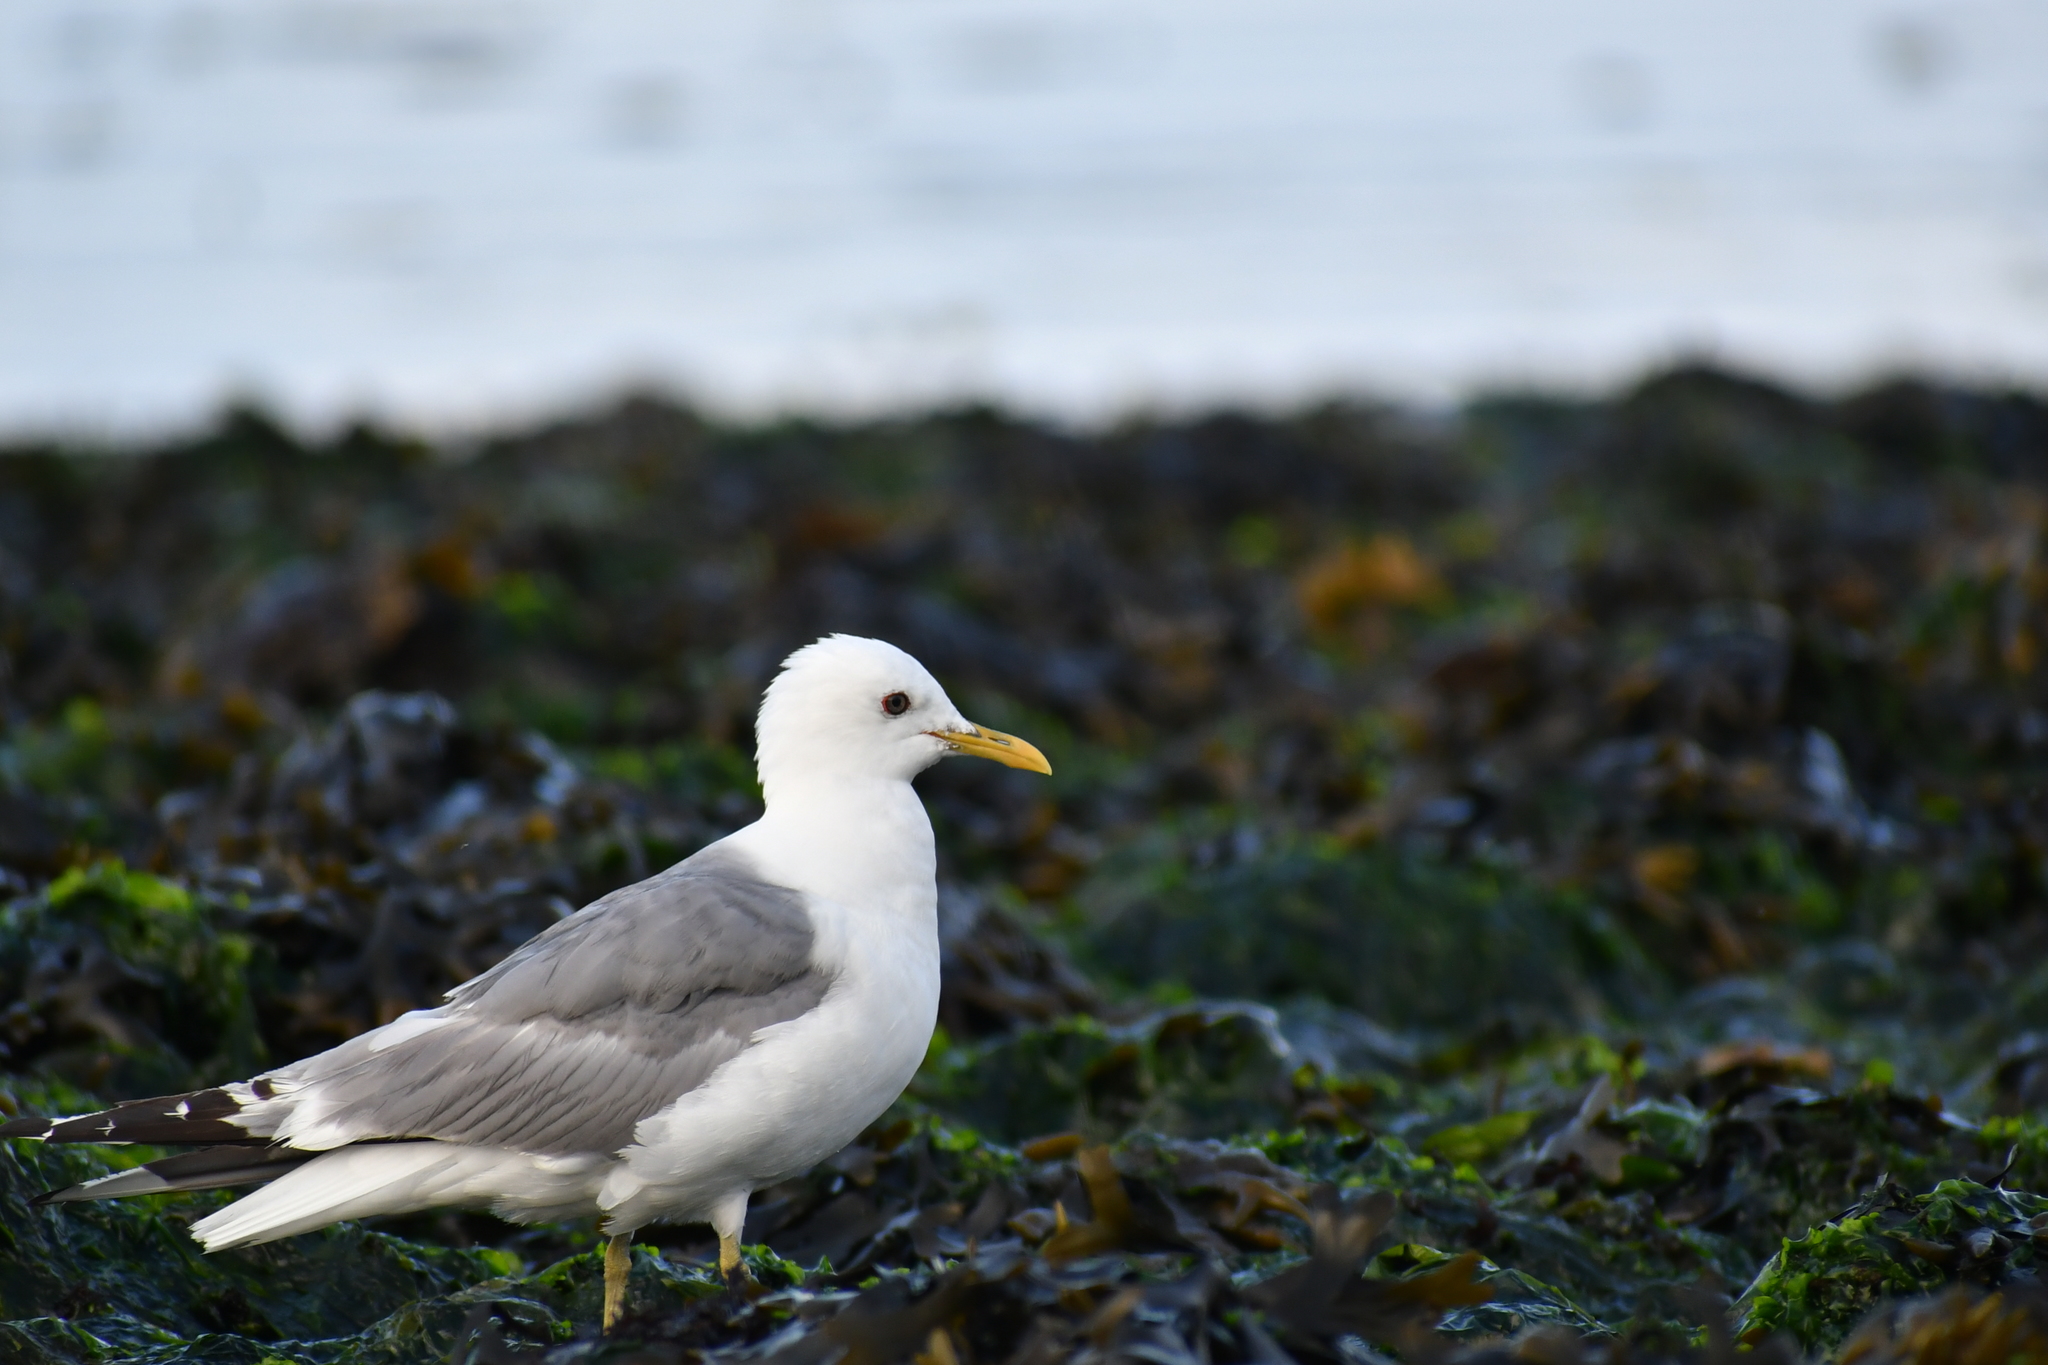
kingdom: Animalia
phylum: Chordata
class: Aves
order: Charadriiformes
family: Laridae
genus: Larus
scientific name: Larus brachyrhynchus
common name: Short-billed gull
